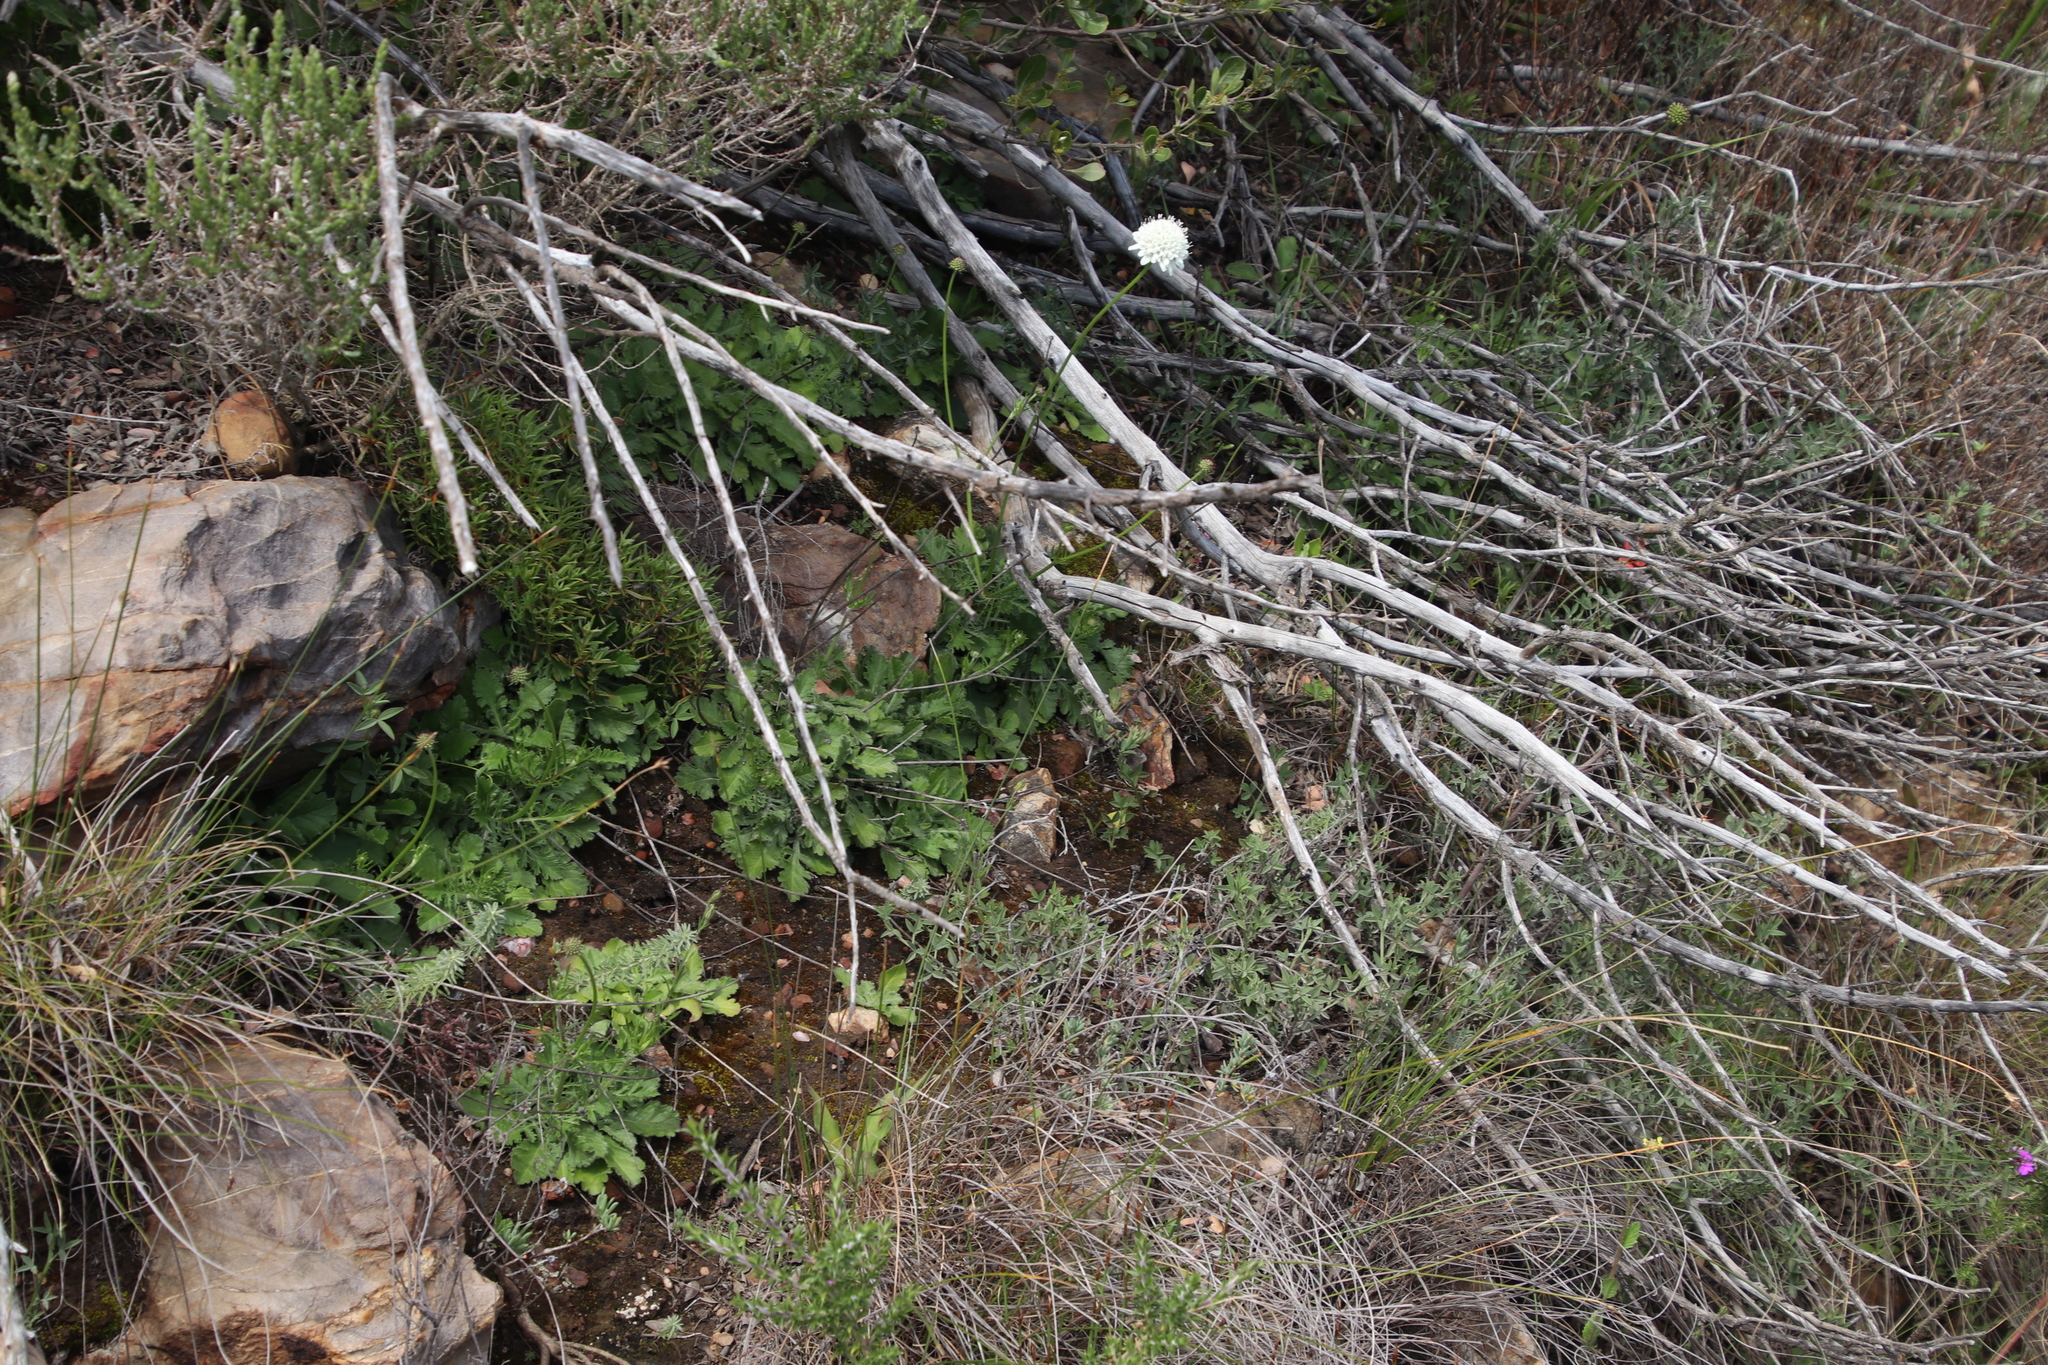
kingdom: Plantae
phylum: Tracheophyta
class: Magnoliopsida
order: Dipsacales
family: Caprifoliaceae
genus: Scabiosa
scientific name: Scabiosa columbaria
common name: Small scabious
